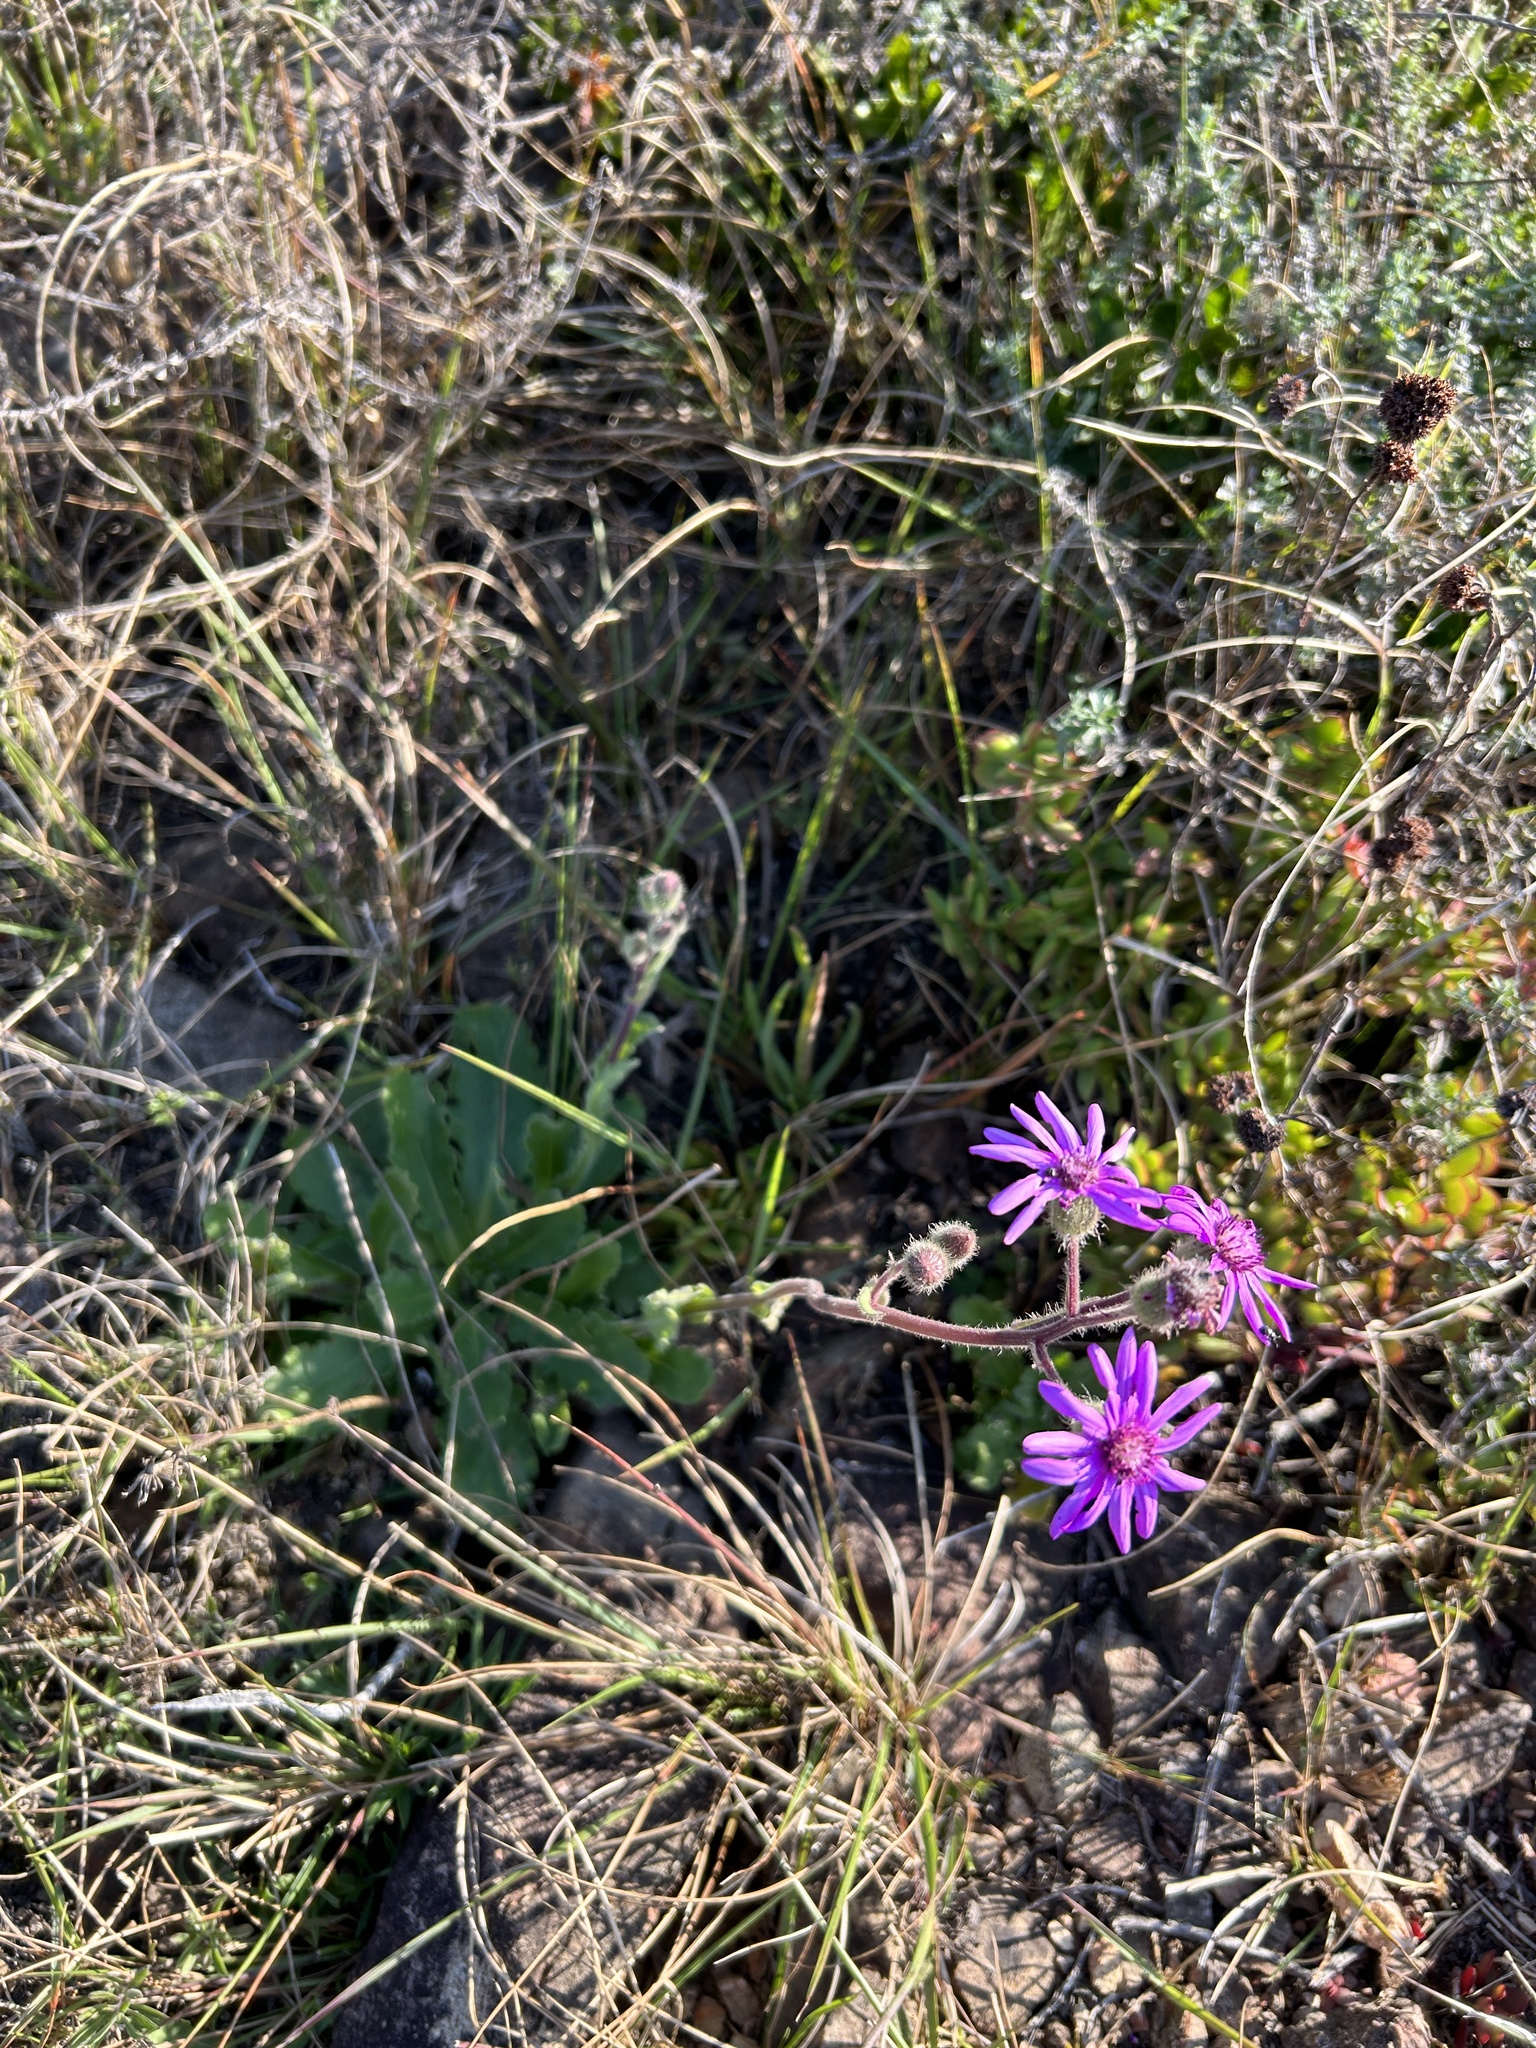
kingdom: Plantae
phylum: Tracheophyta
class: Magnoliopsida
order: Asterales
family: Asteraceae
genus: Senecio
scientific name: Senecio speciosus
